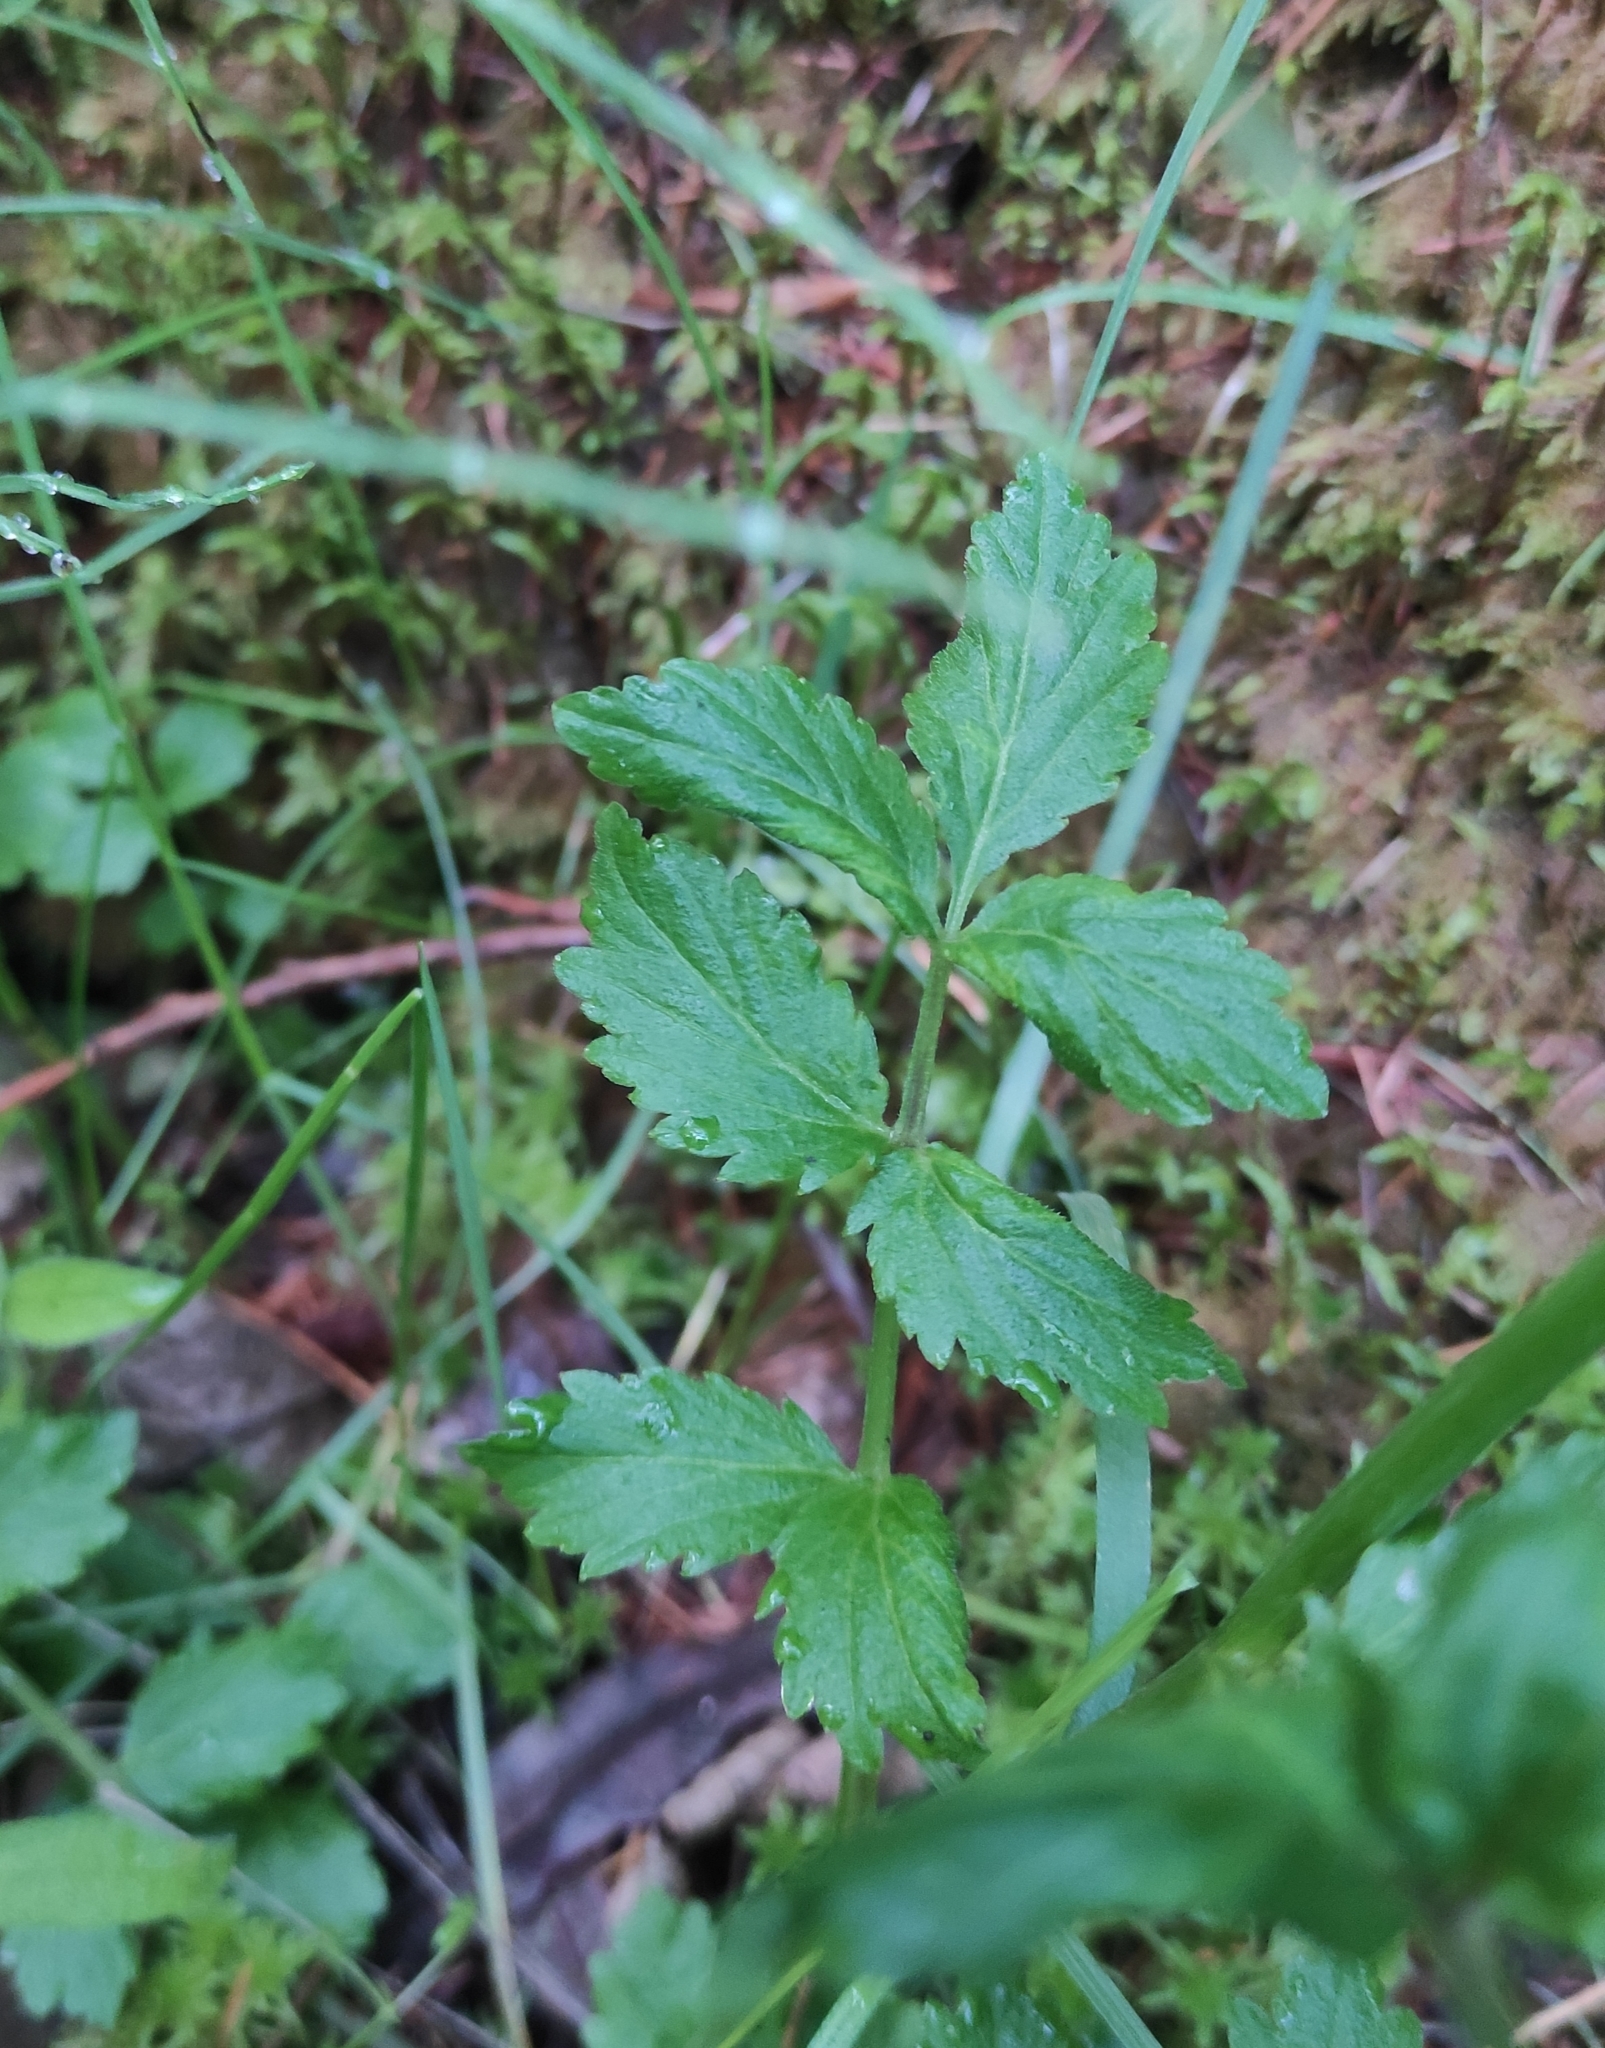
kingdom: Plantae
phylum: Tracheophyta
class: Magnoliopsida
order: Brassicales
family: Brassicaceae
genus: Cardamine
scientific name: Cardamine pratensis
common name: Cuckoo flower
